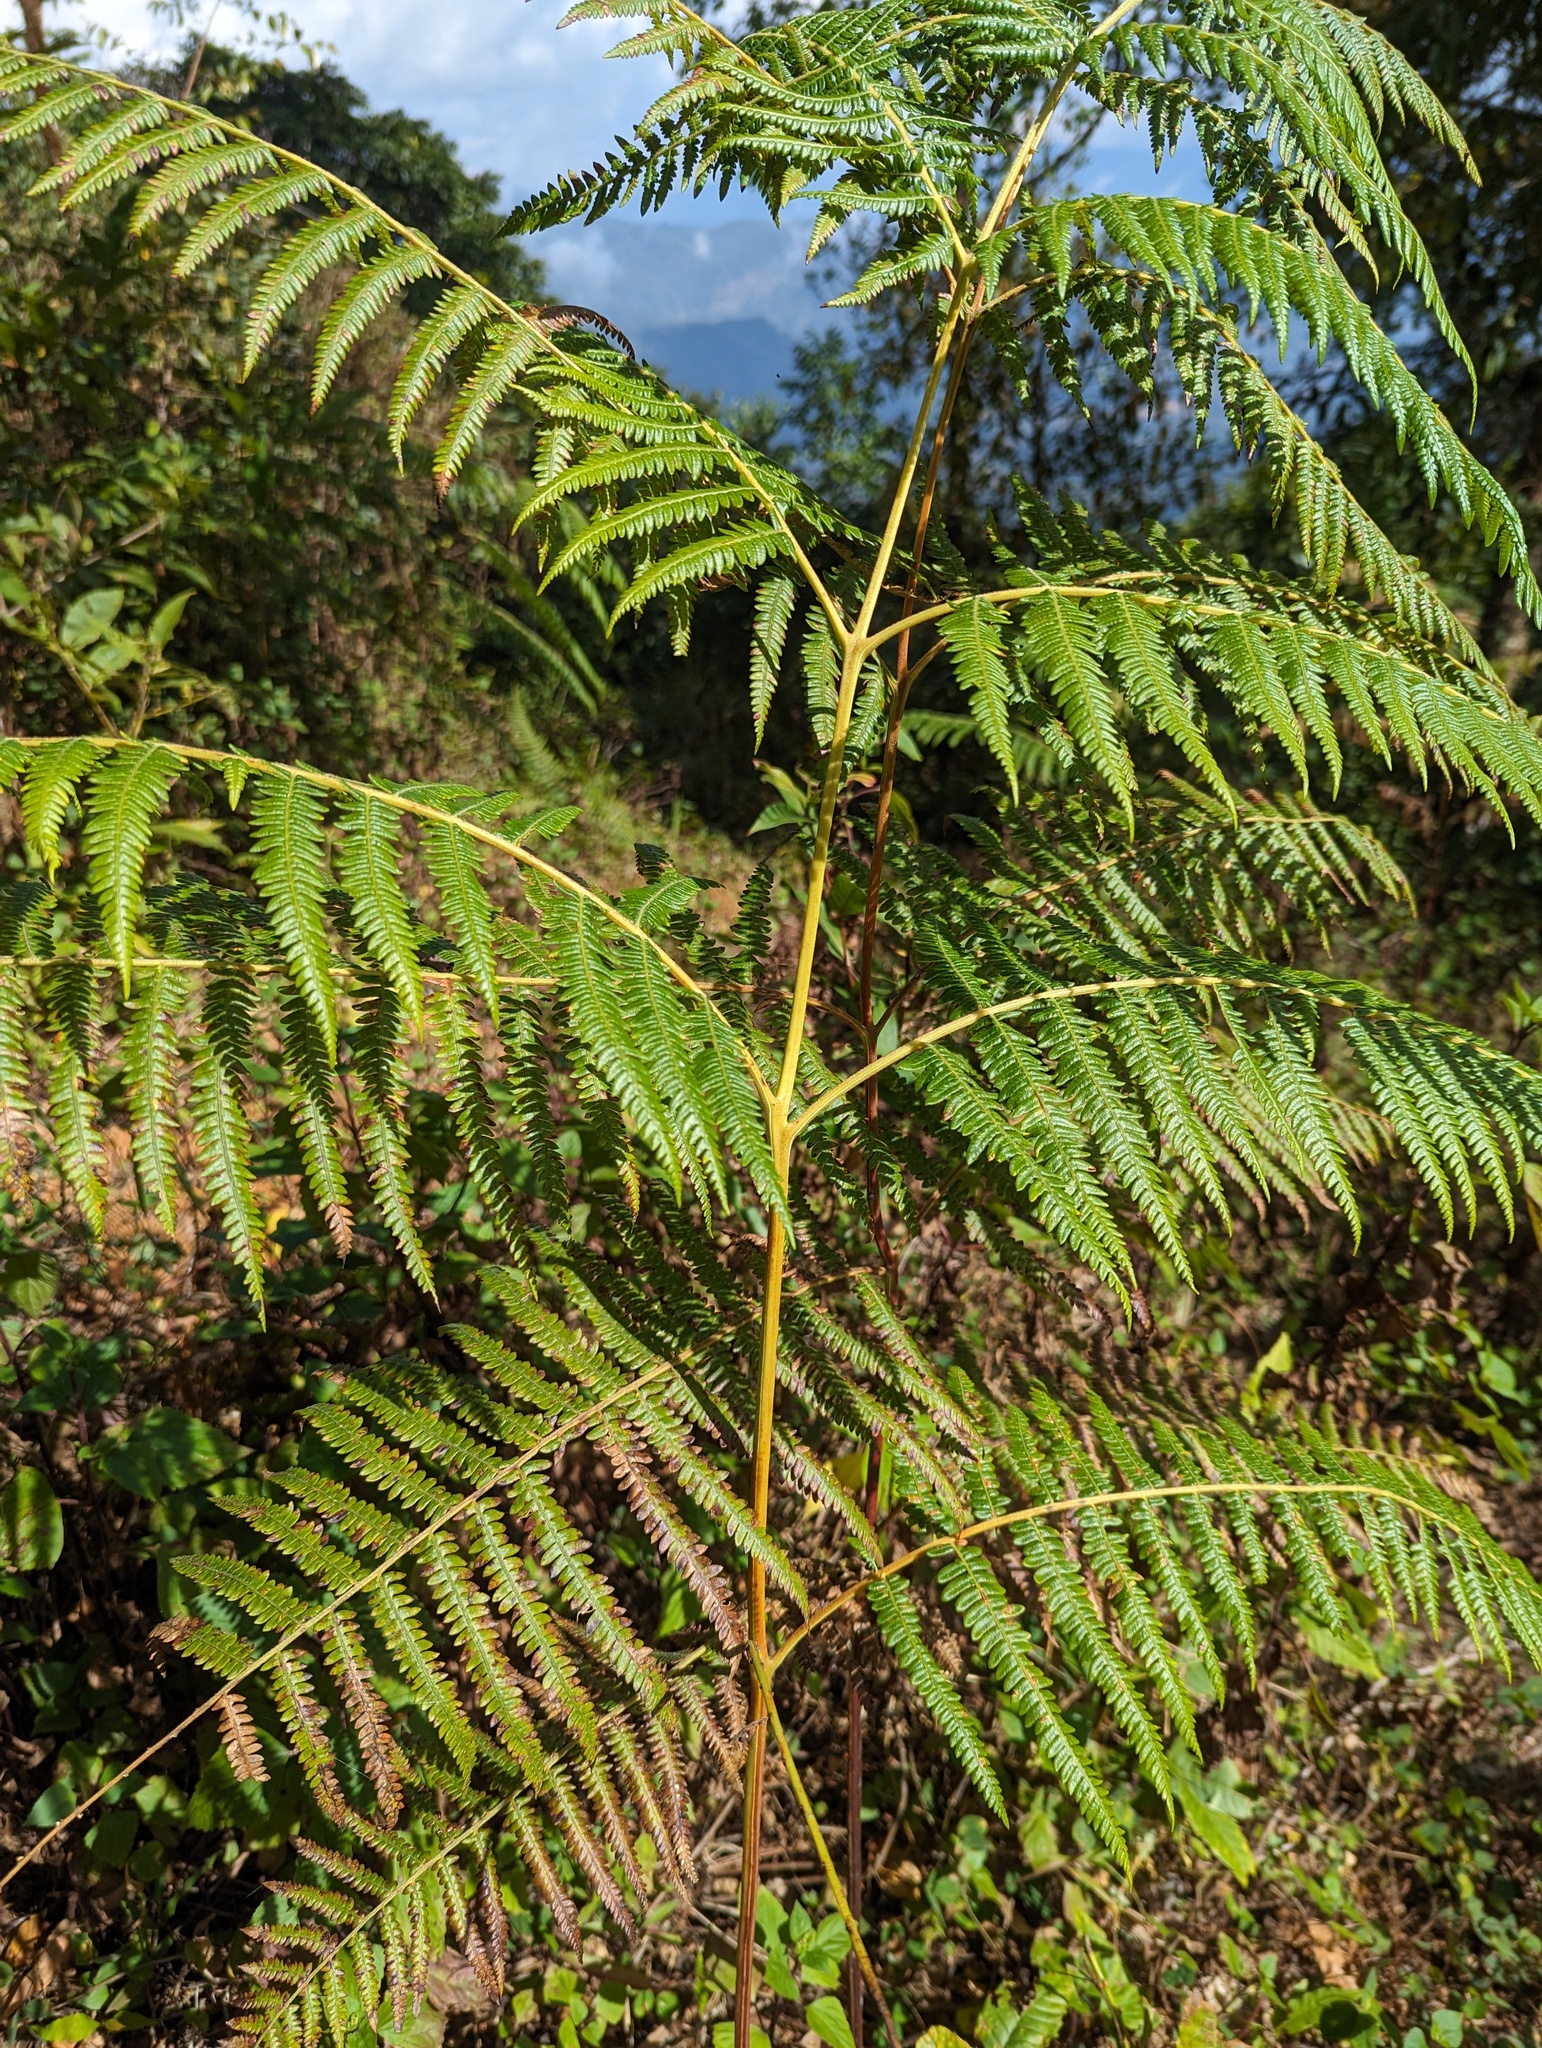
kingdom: Plantae
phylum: Tracheophyta
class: Polypodiopsida
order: Polypodiales
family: Dennstaedtiaceae
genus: Pteridium
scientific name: Pteridium aquilinum
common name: Bracken
